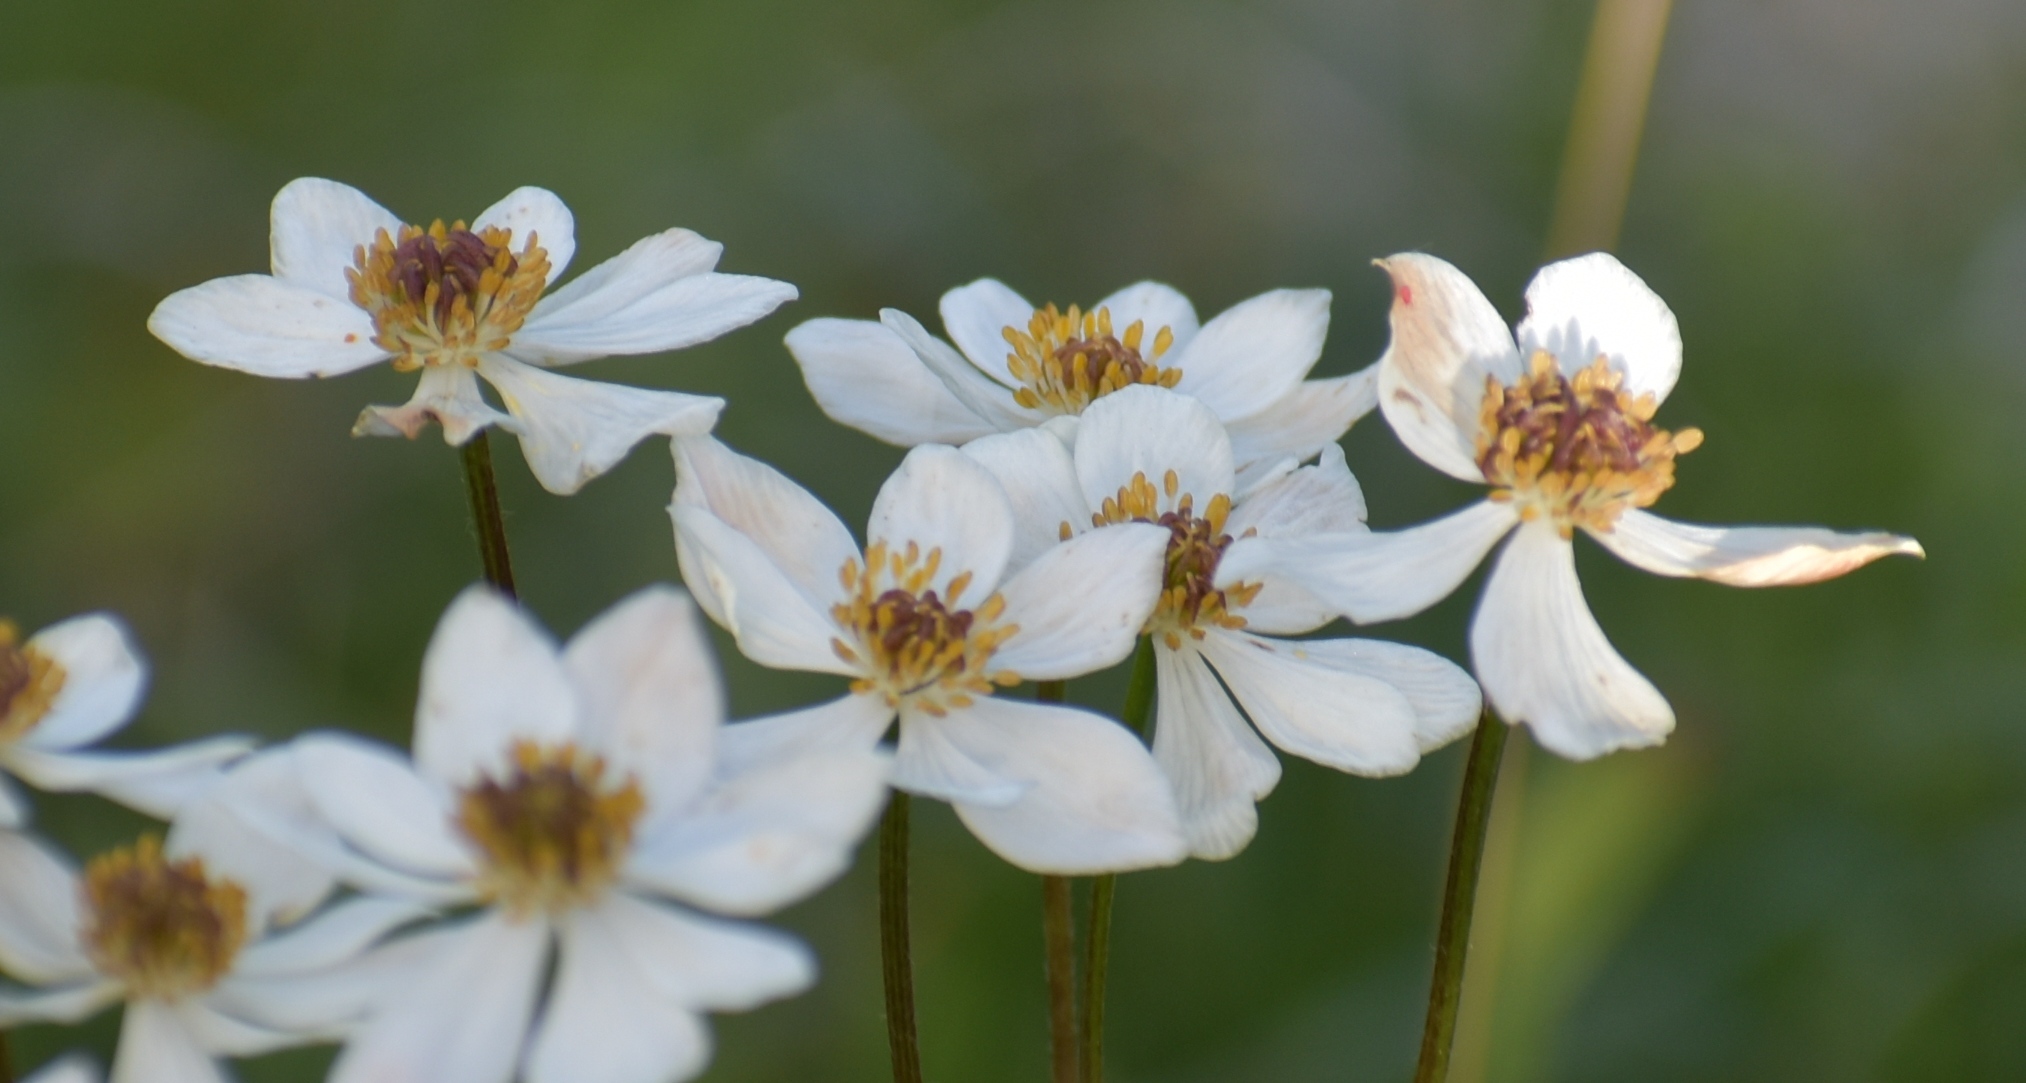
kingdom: Plantae
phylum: Tracheophyta
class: Magnoliopsida
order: Ranunculales
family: Ranunculaceae
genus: Anemonastrum
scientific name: Anemonastrum narcissiflorum
